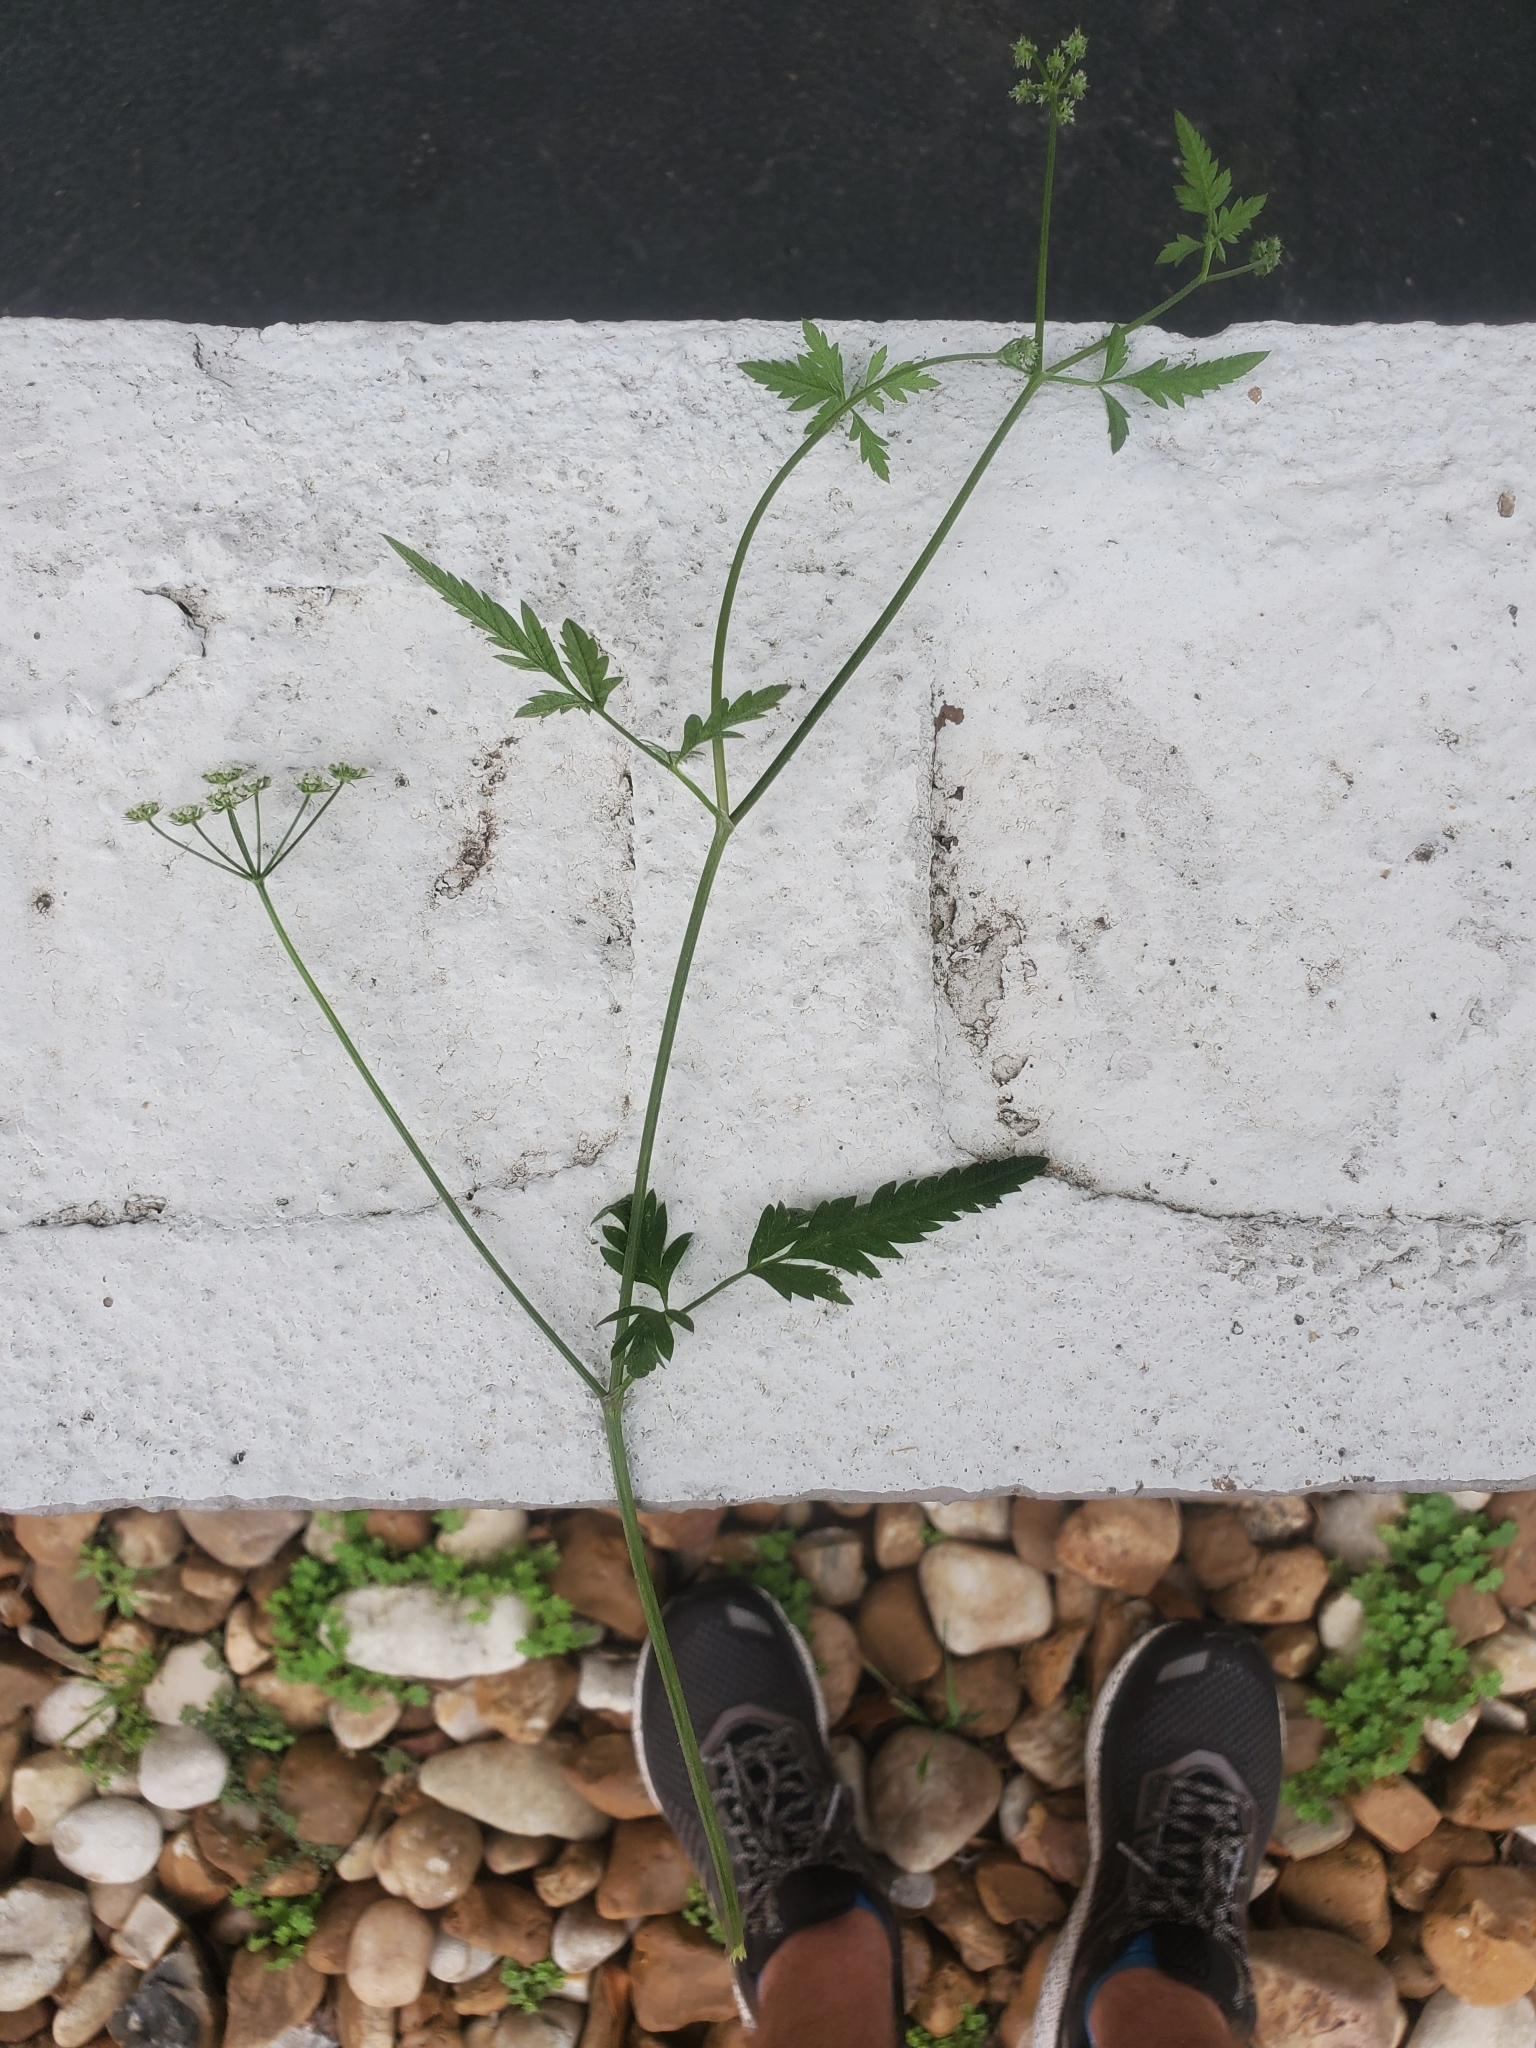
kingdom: Plantae
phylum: Tracheophyta
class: Magnoliopsida
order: Apiales
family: Apiaceae
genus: Torilis
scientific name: Torilis arvensis
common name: Spreading hedge-parsley
